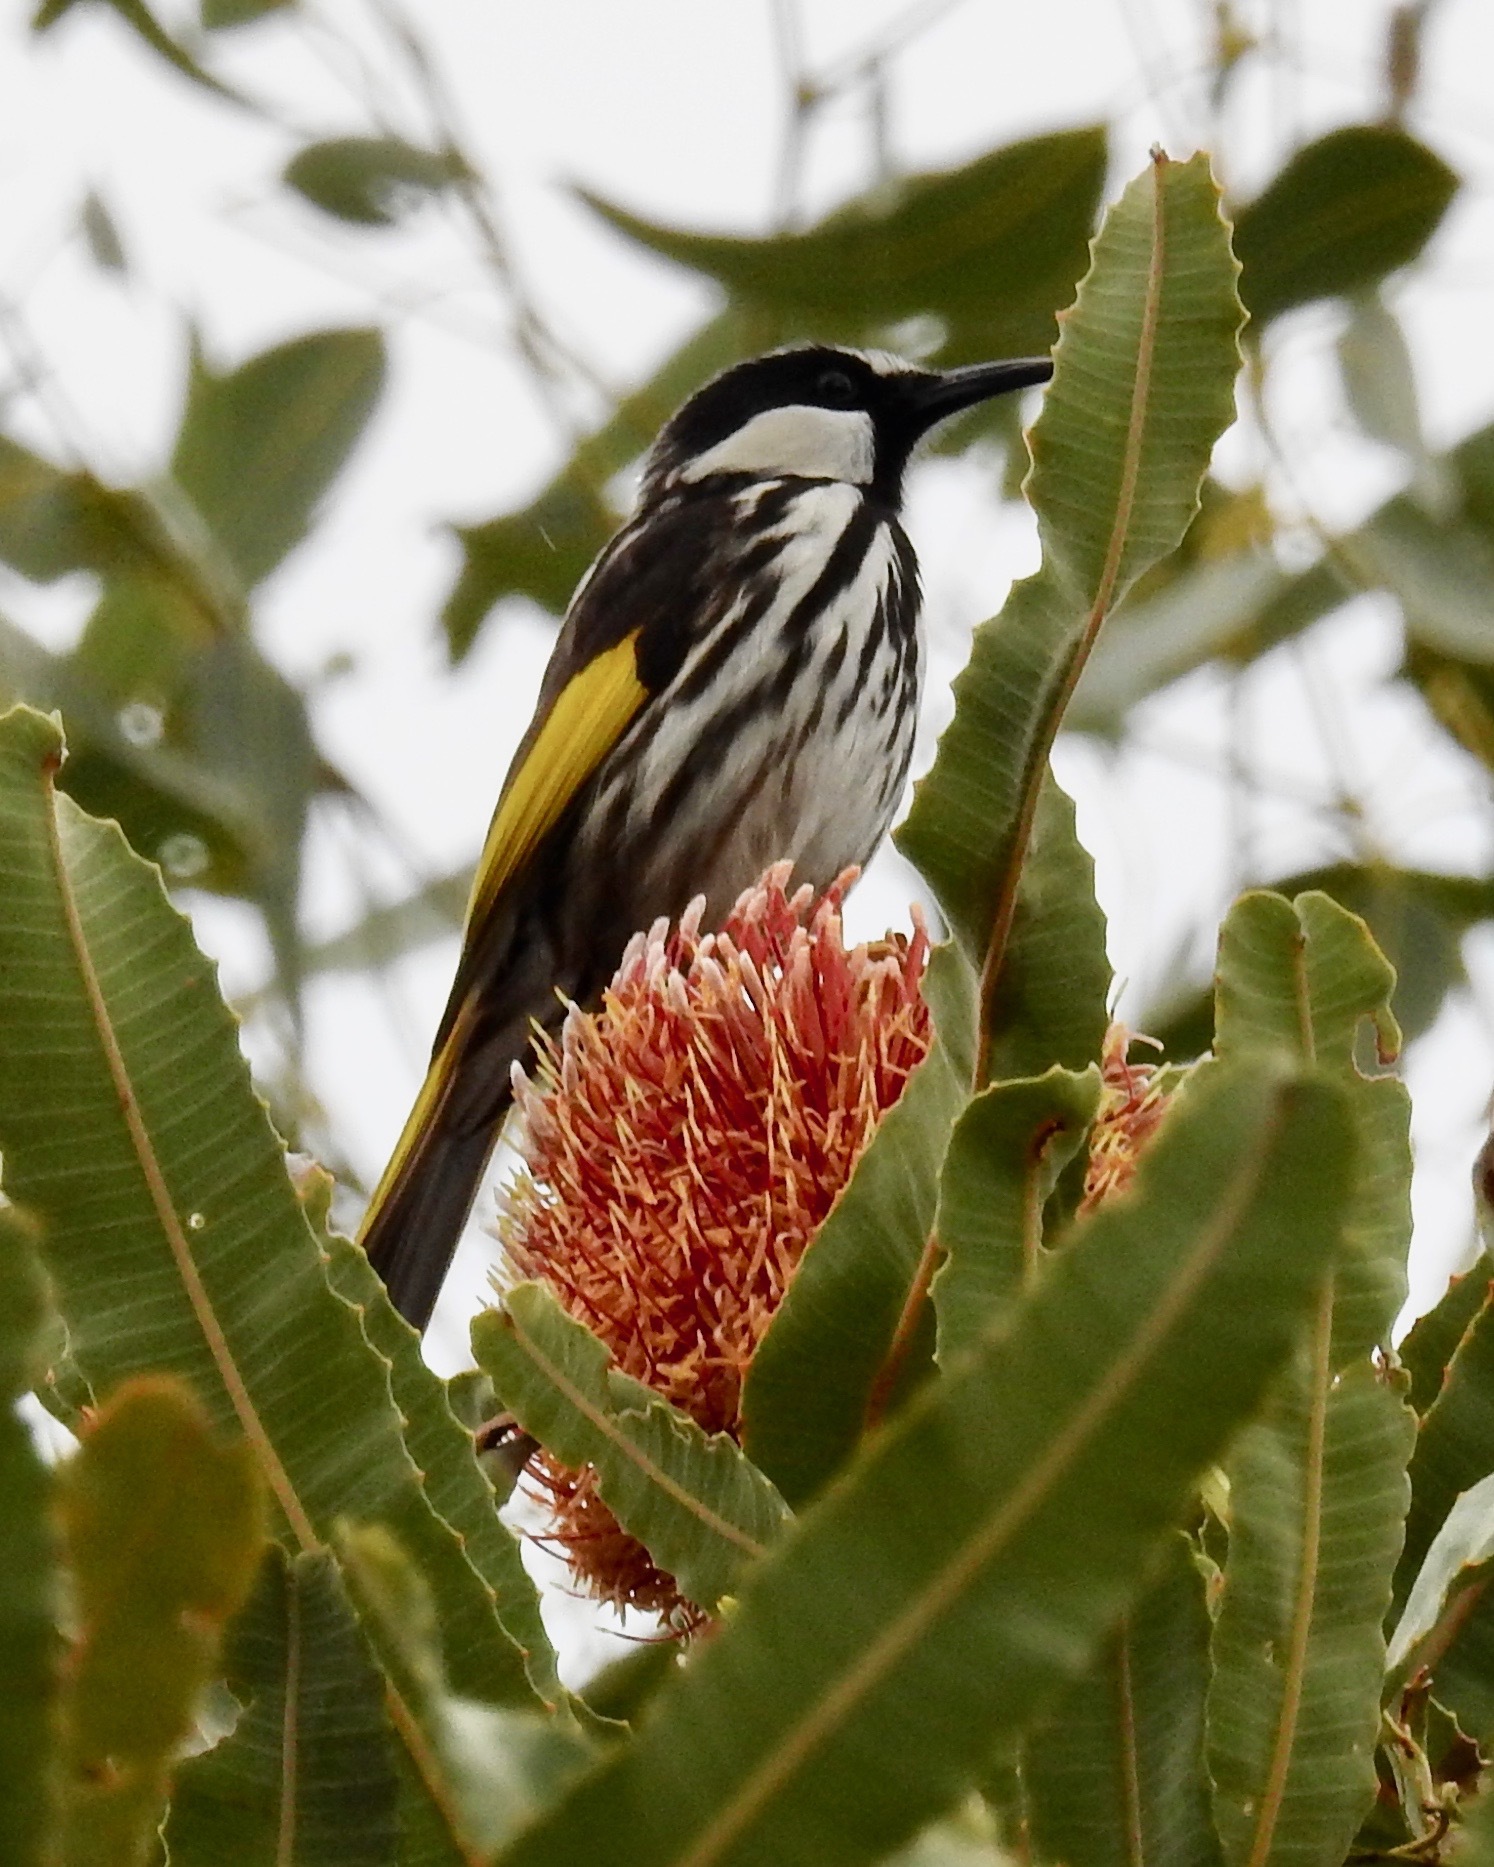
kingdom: Animalia
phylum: Chordata
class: Aves
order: Passeriformes
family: Meliphagidae
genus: Phylidonyris
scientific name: Phylidonyris niger
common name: White-cheeked honeyeater
